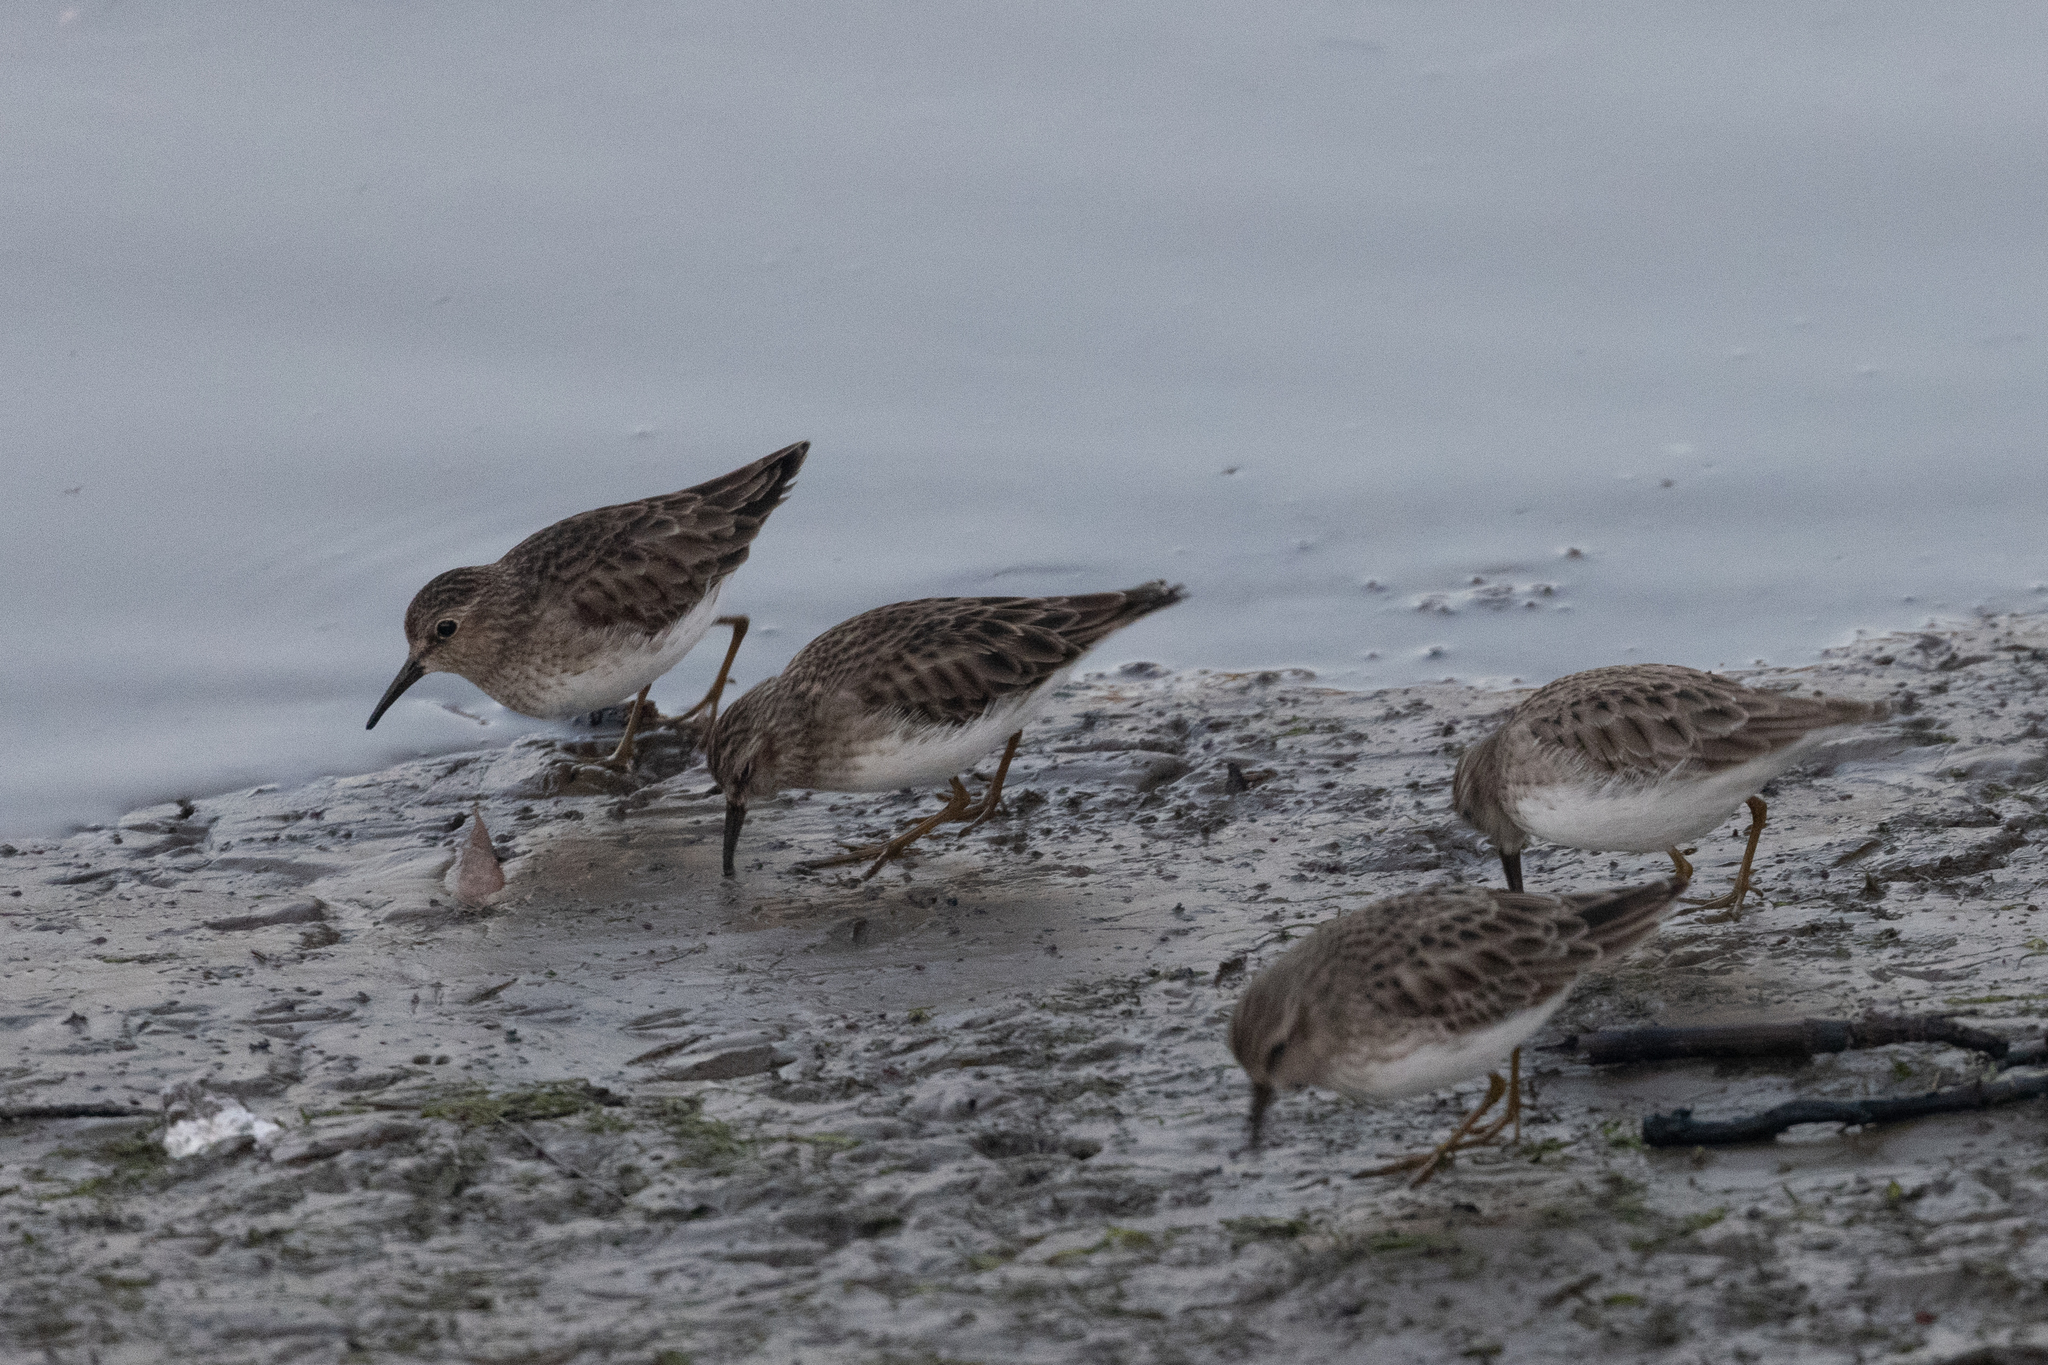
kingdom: Animalia
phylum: Chordata
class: Aves
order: Charadriiformes
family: Scolopacidae
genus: Calidris
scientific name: Calidris minutilla
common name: Least sandpiper
